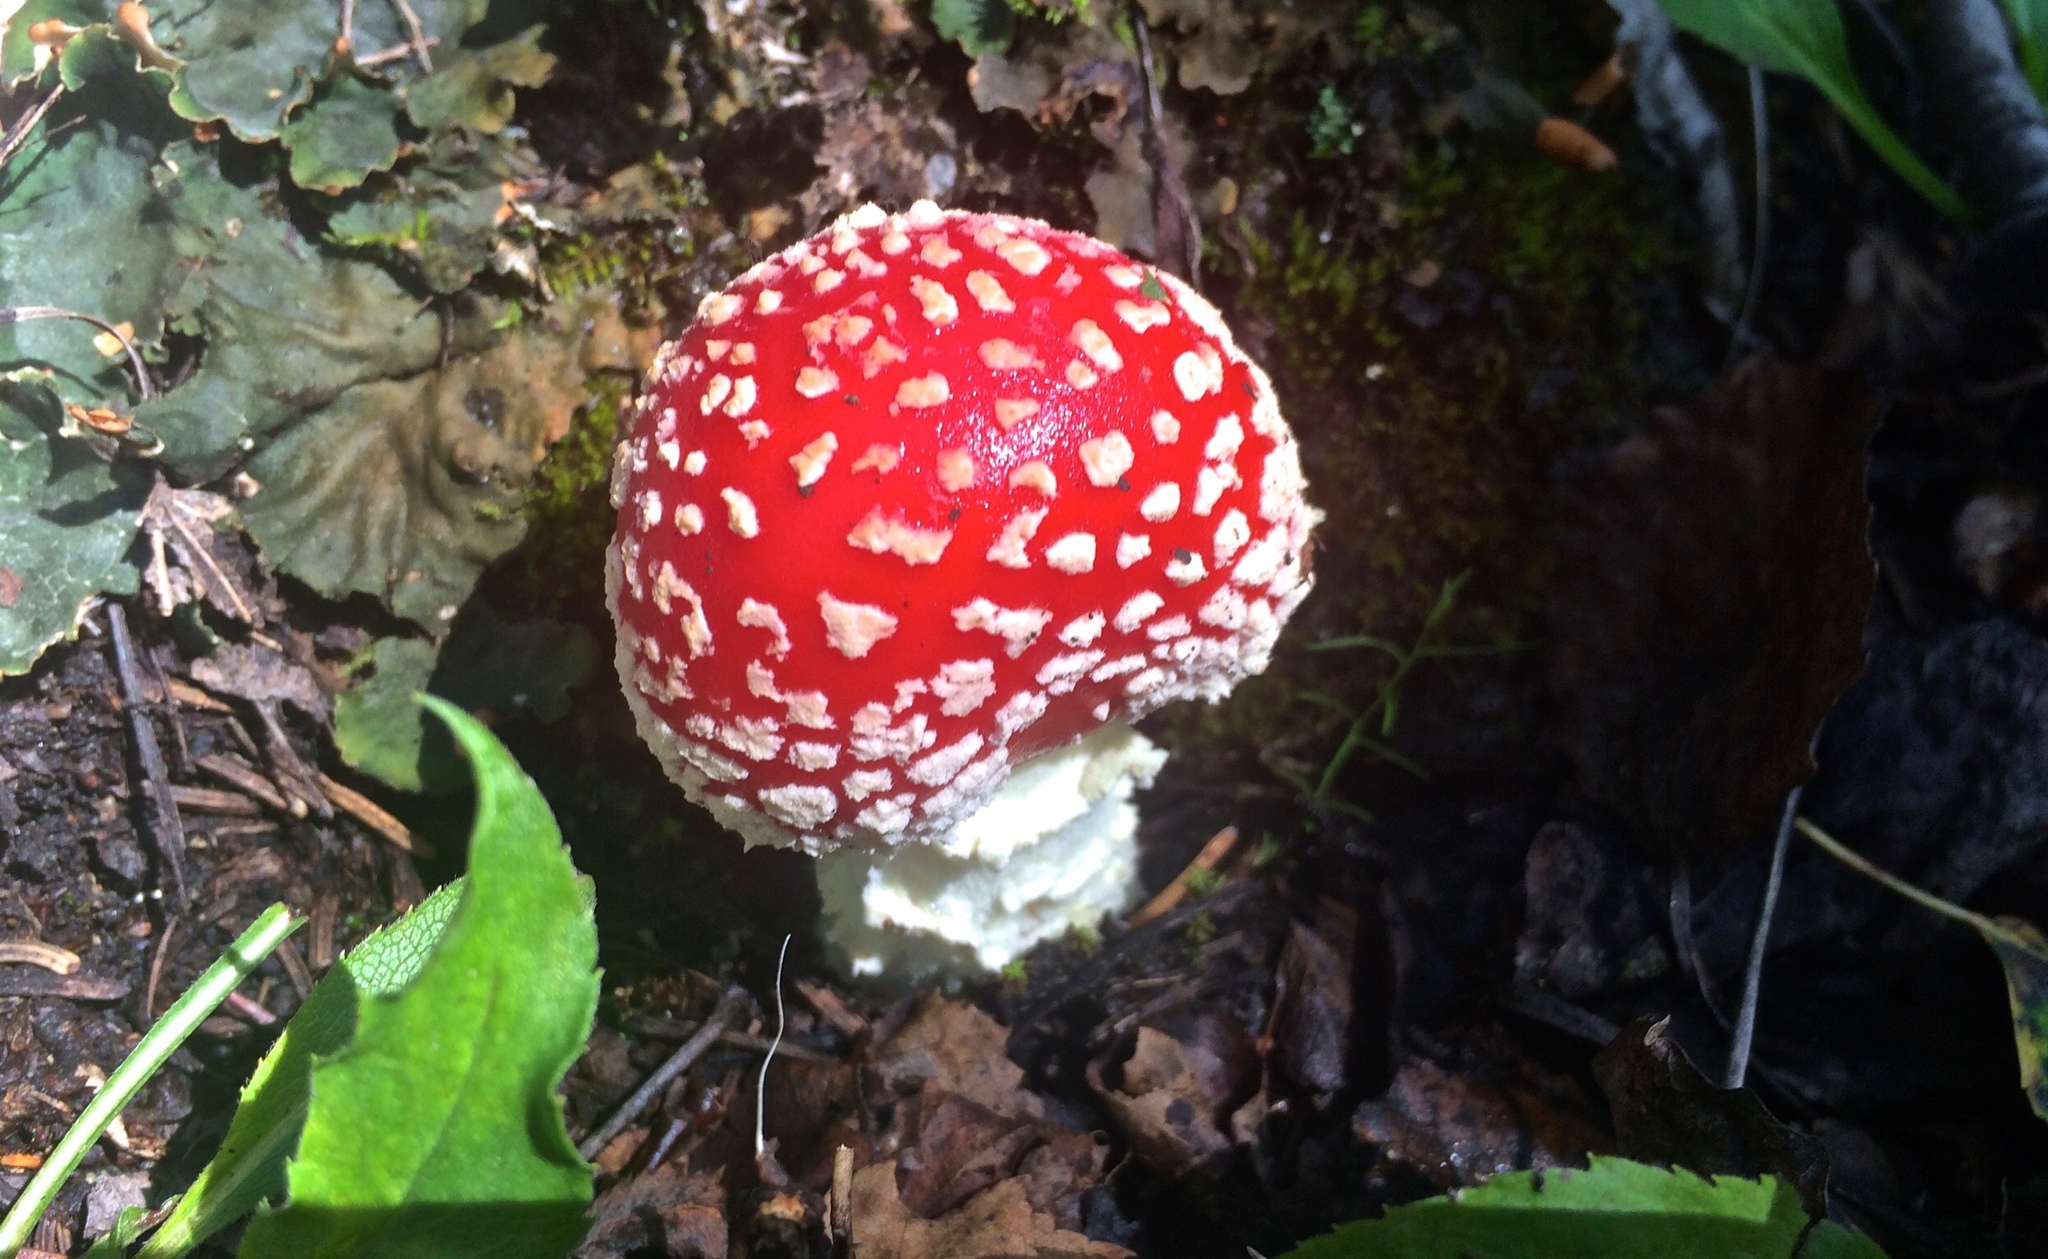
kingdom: Fungi
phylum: Basidiomycota
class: Agaricomycetes
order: Agaricales
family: Amanitaceae
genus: Amanita
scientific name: Amanita muscaria
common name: Fly agaric
